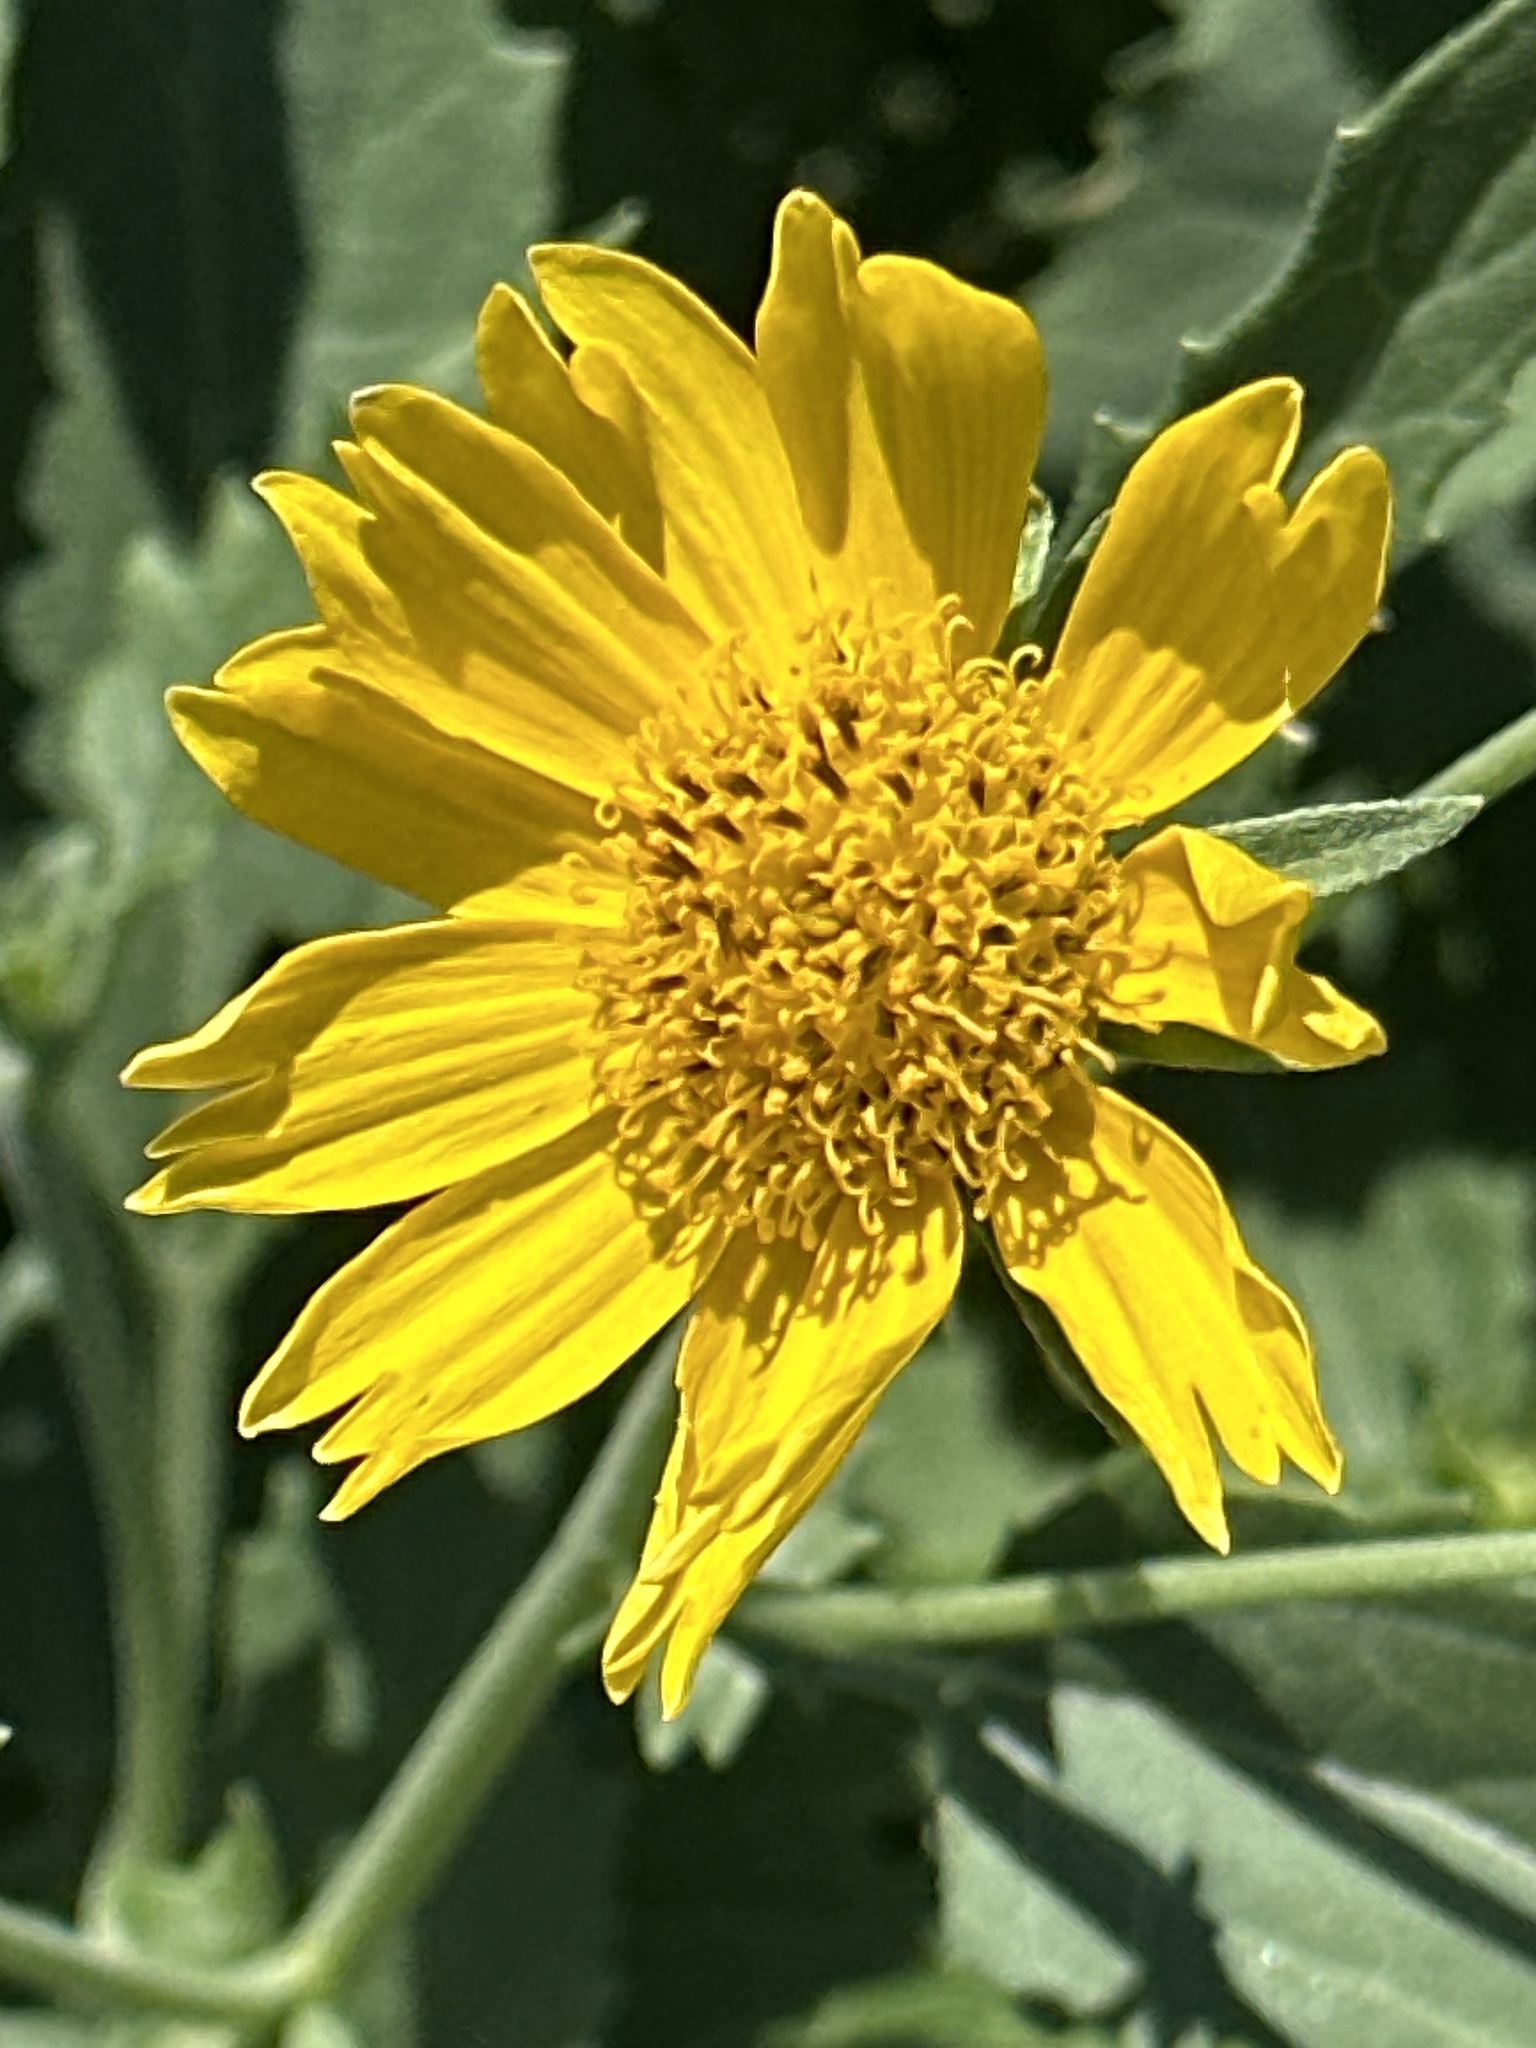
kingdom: Plantae
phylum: Tracheophyta
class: Magnoliopsida
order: Asterales
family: Asteraceae
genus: Verbesina
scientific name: Verbesina encelioides
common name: Golden crownbeard
